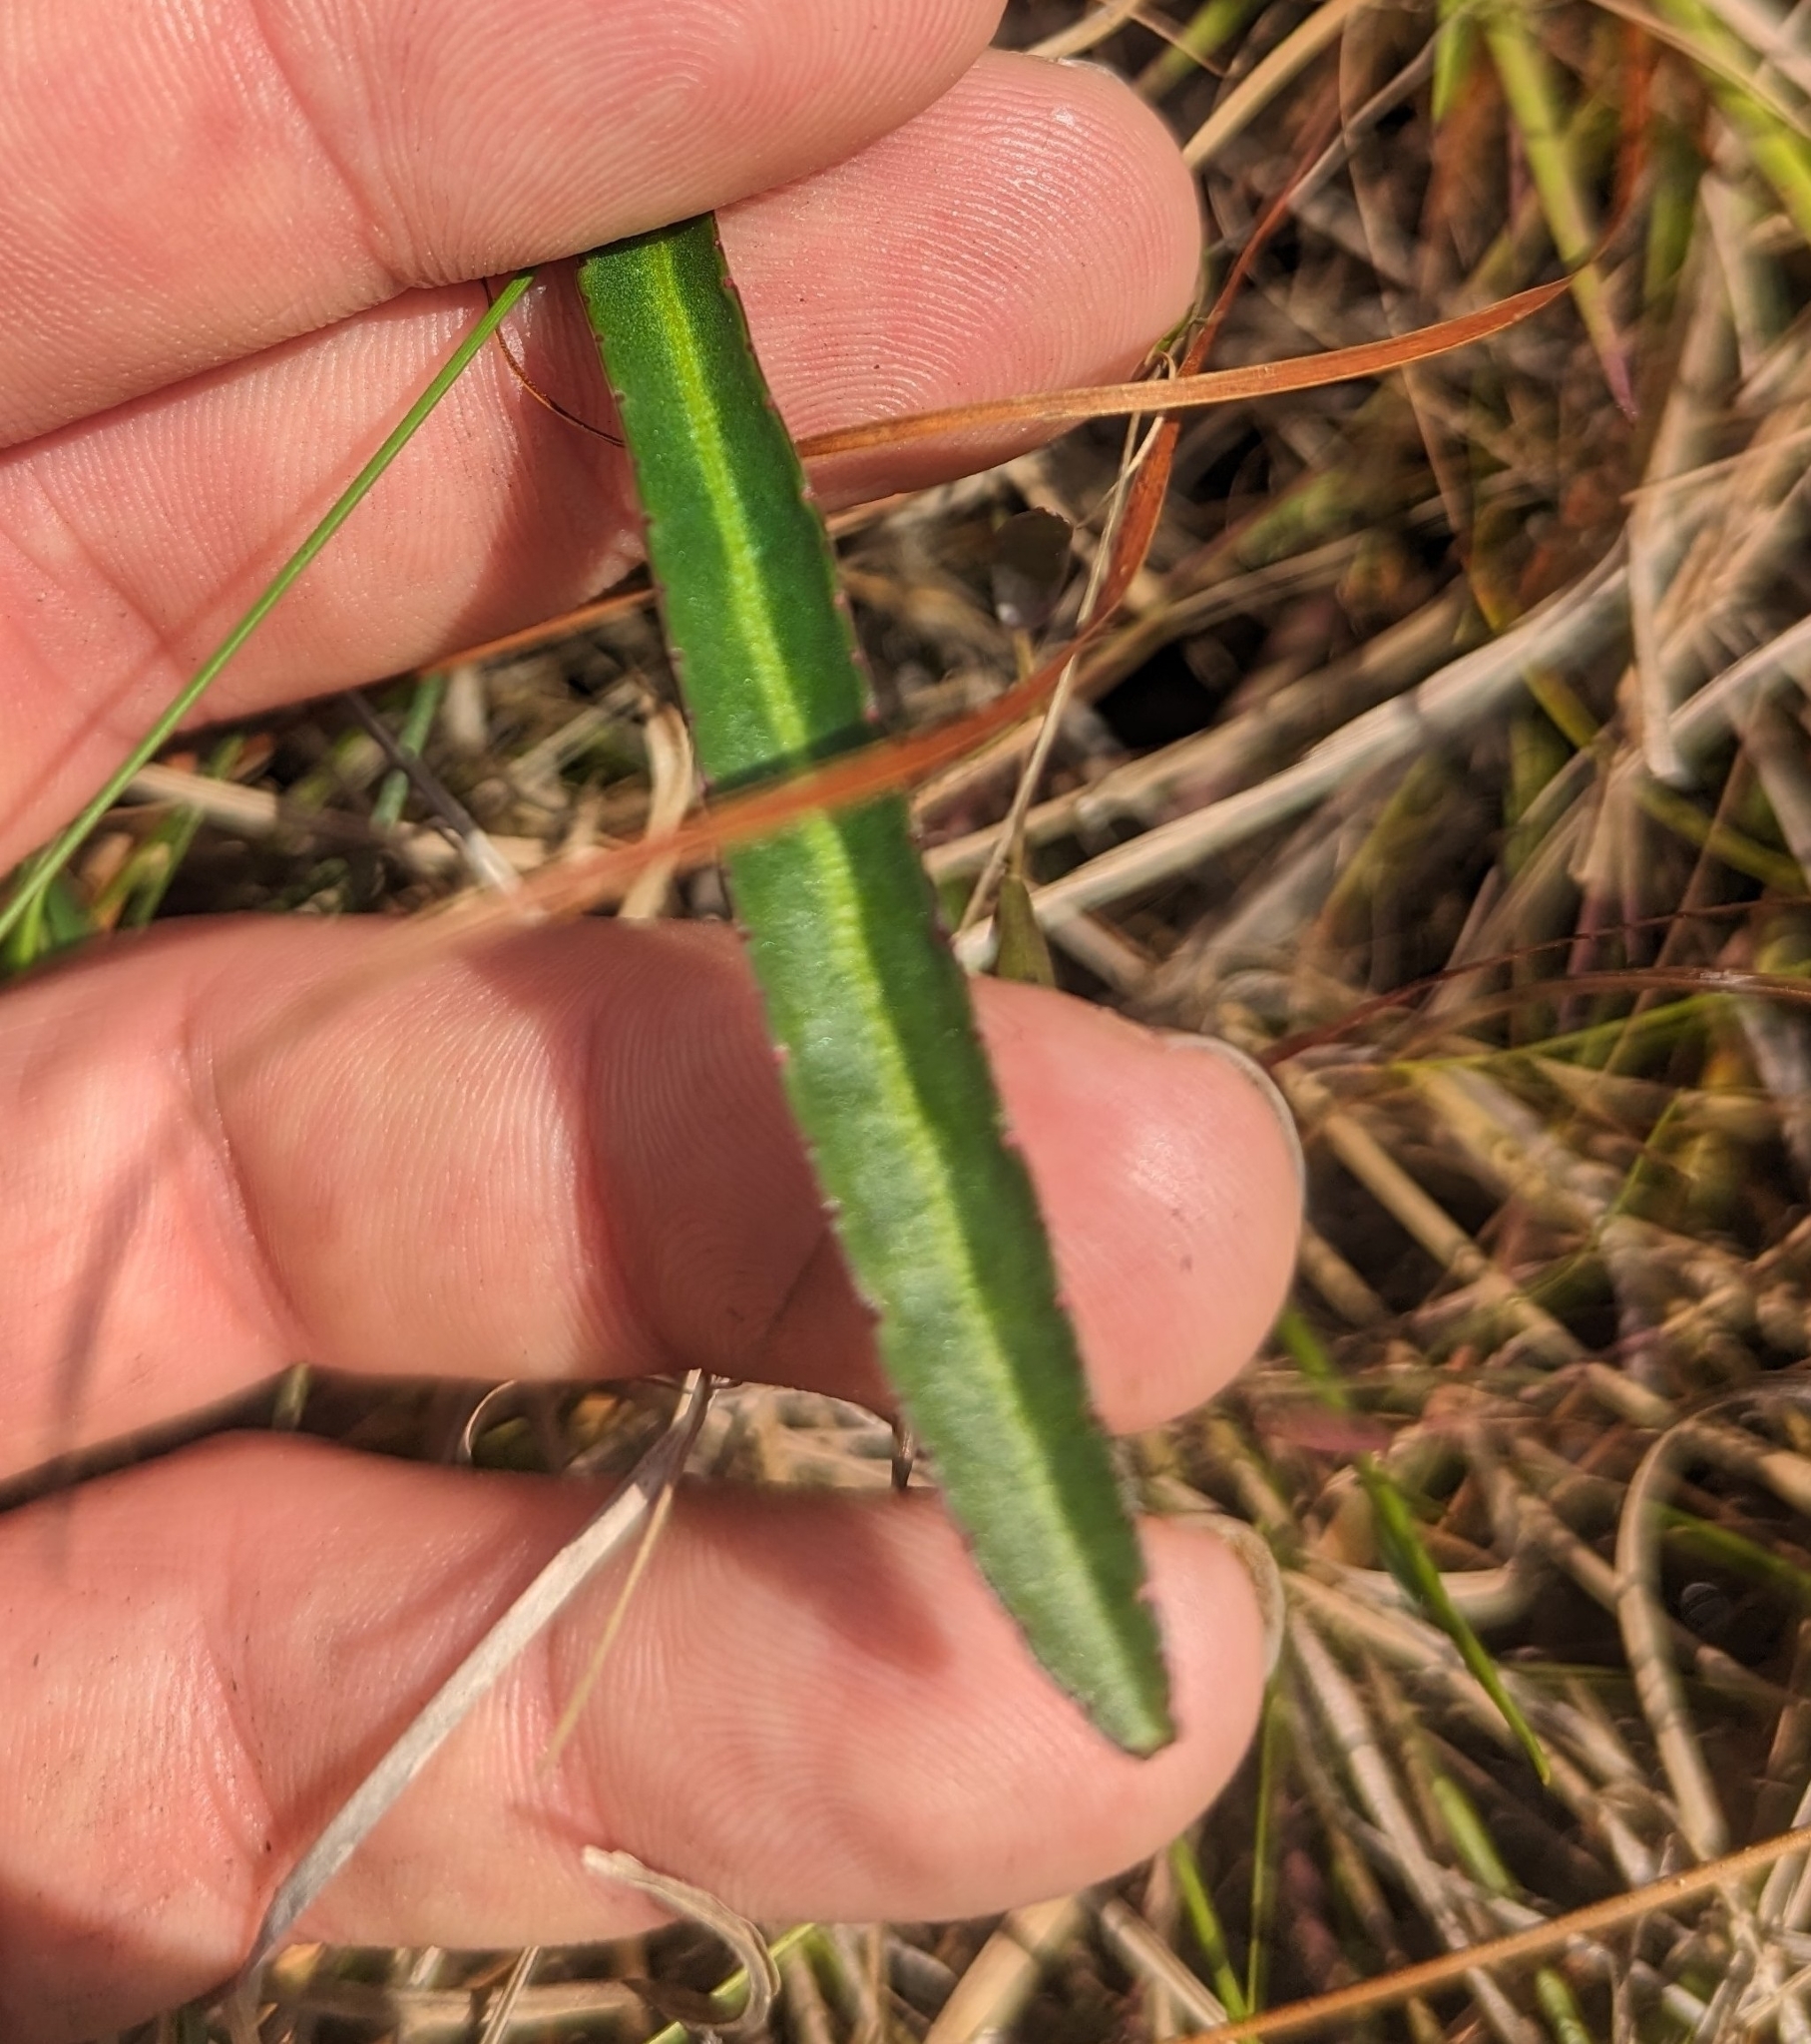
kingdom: Plantae
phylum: Tracheophyta
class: Magnoliopsida
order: Asterales
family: Campanulaceae
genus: Lobelia
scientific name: Lobelia paludosa
